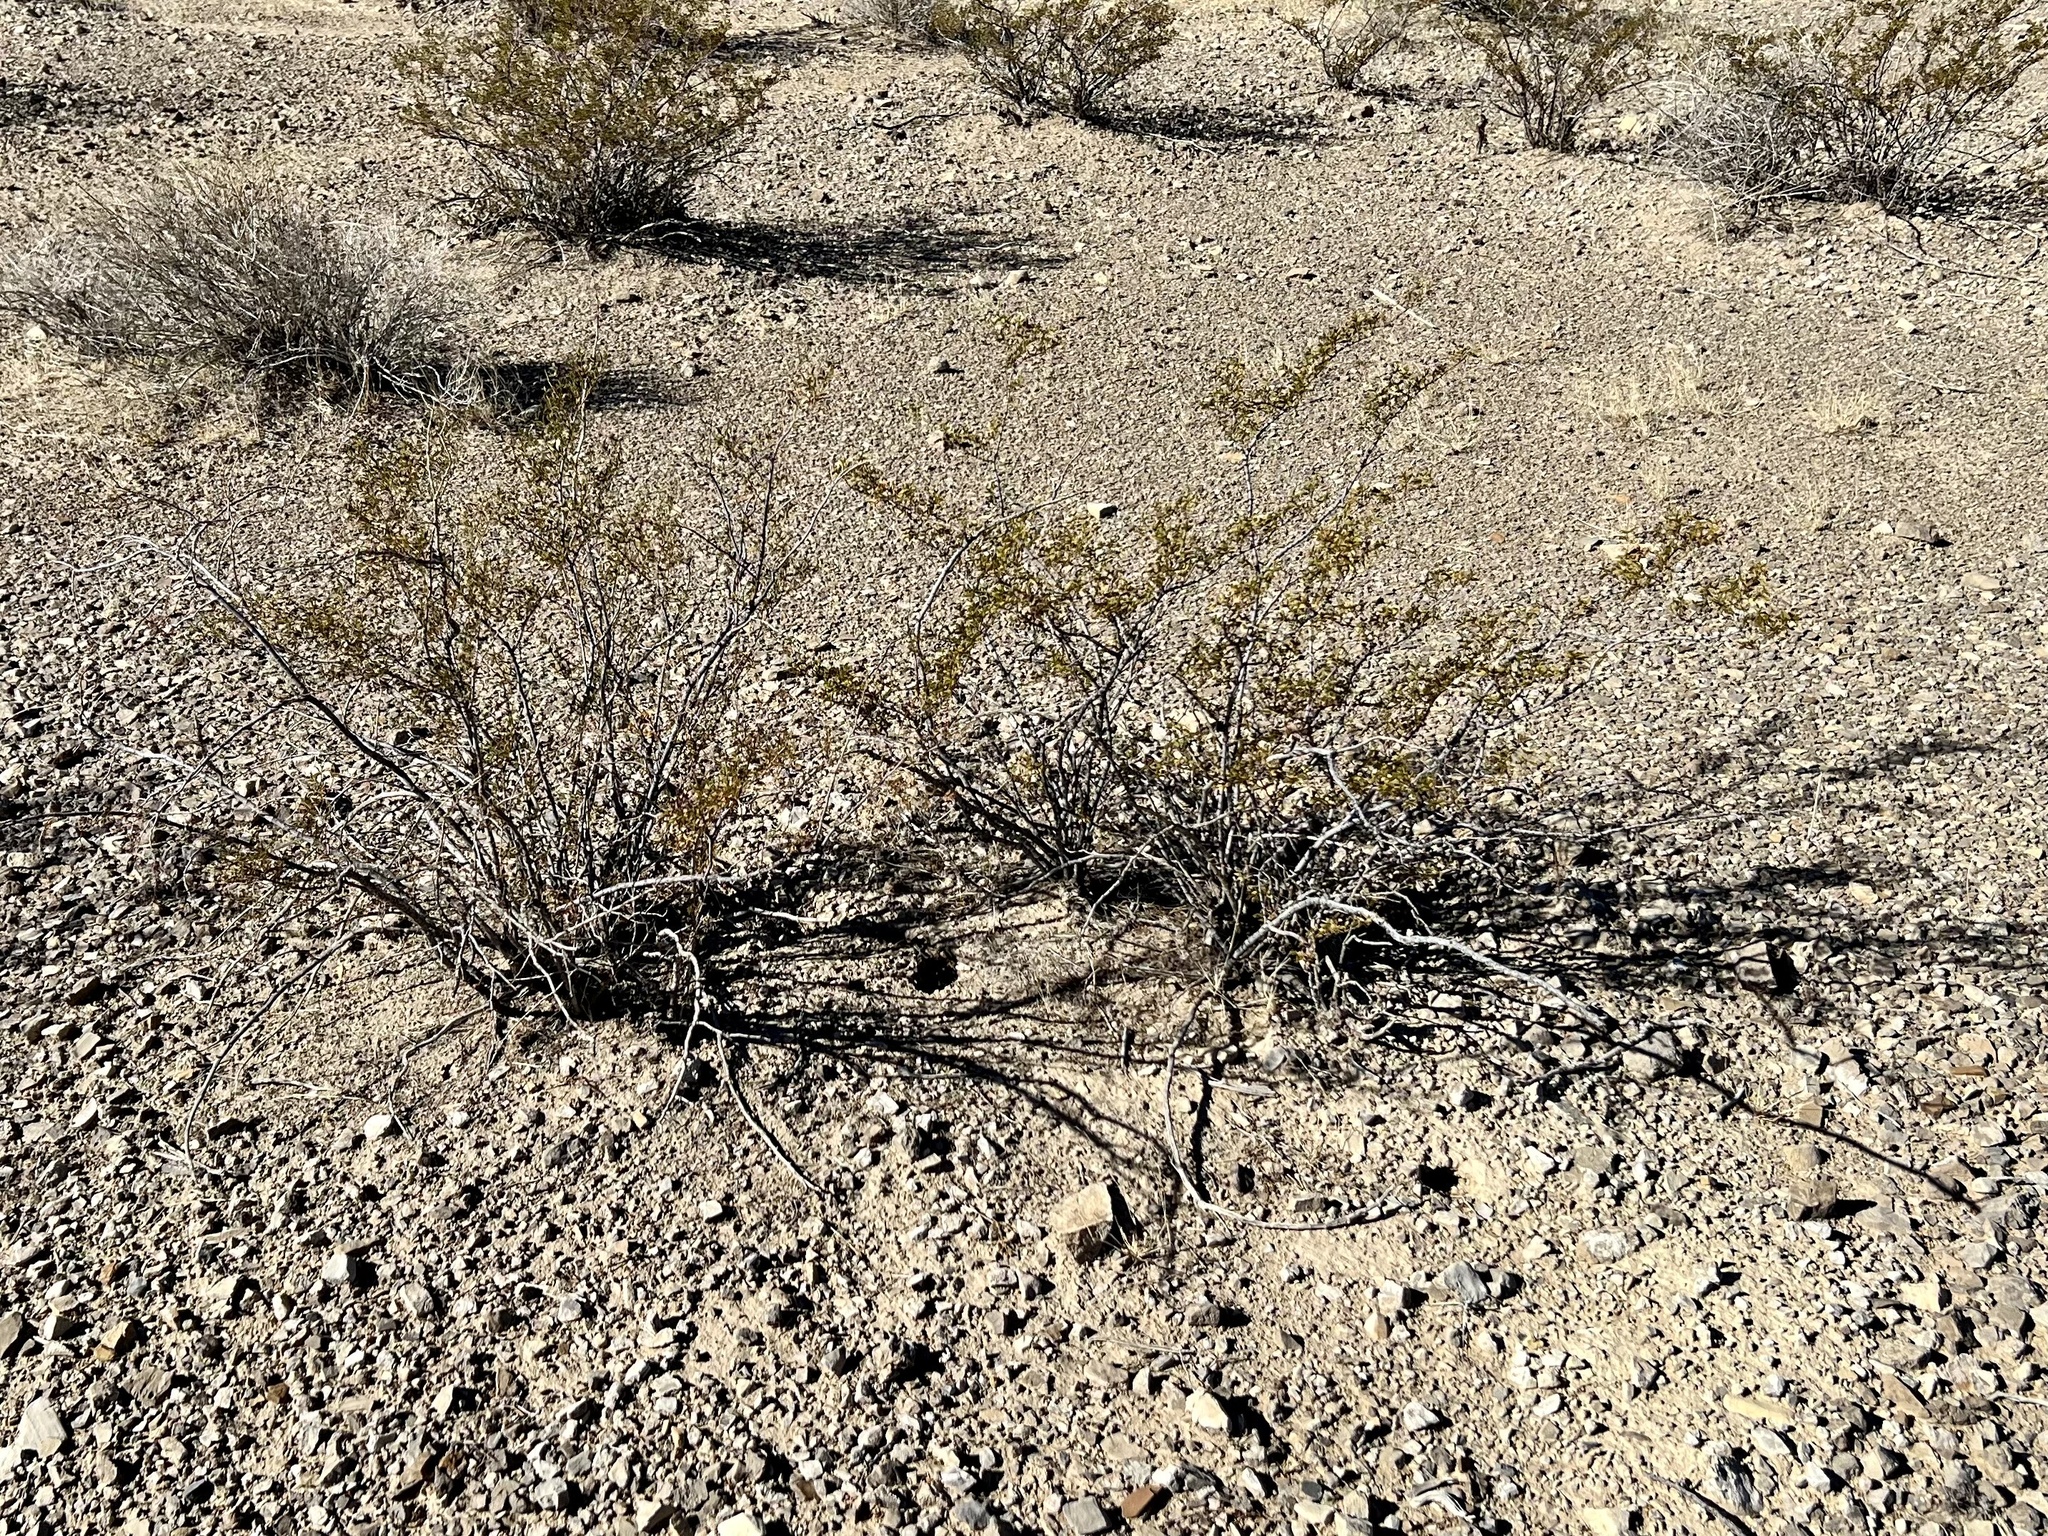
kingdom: Plantae
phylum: Tracheophyta
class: Magnoliopsida
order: Zygophyllales
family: Zygophyllaceae
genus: Larrea
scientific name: Larrea tridentata
